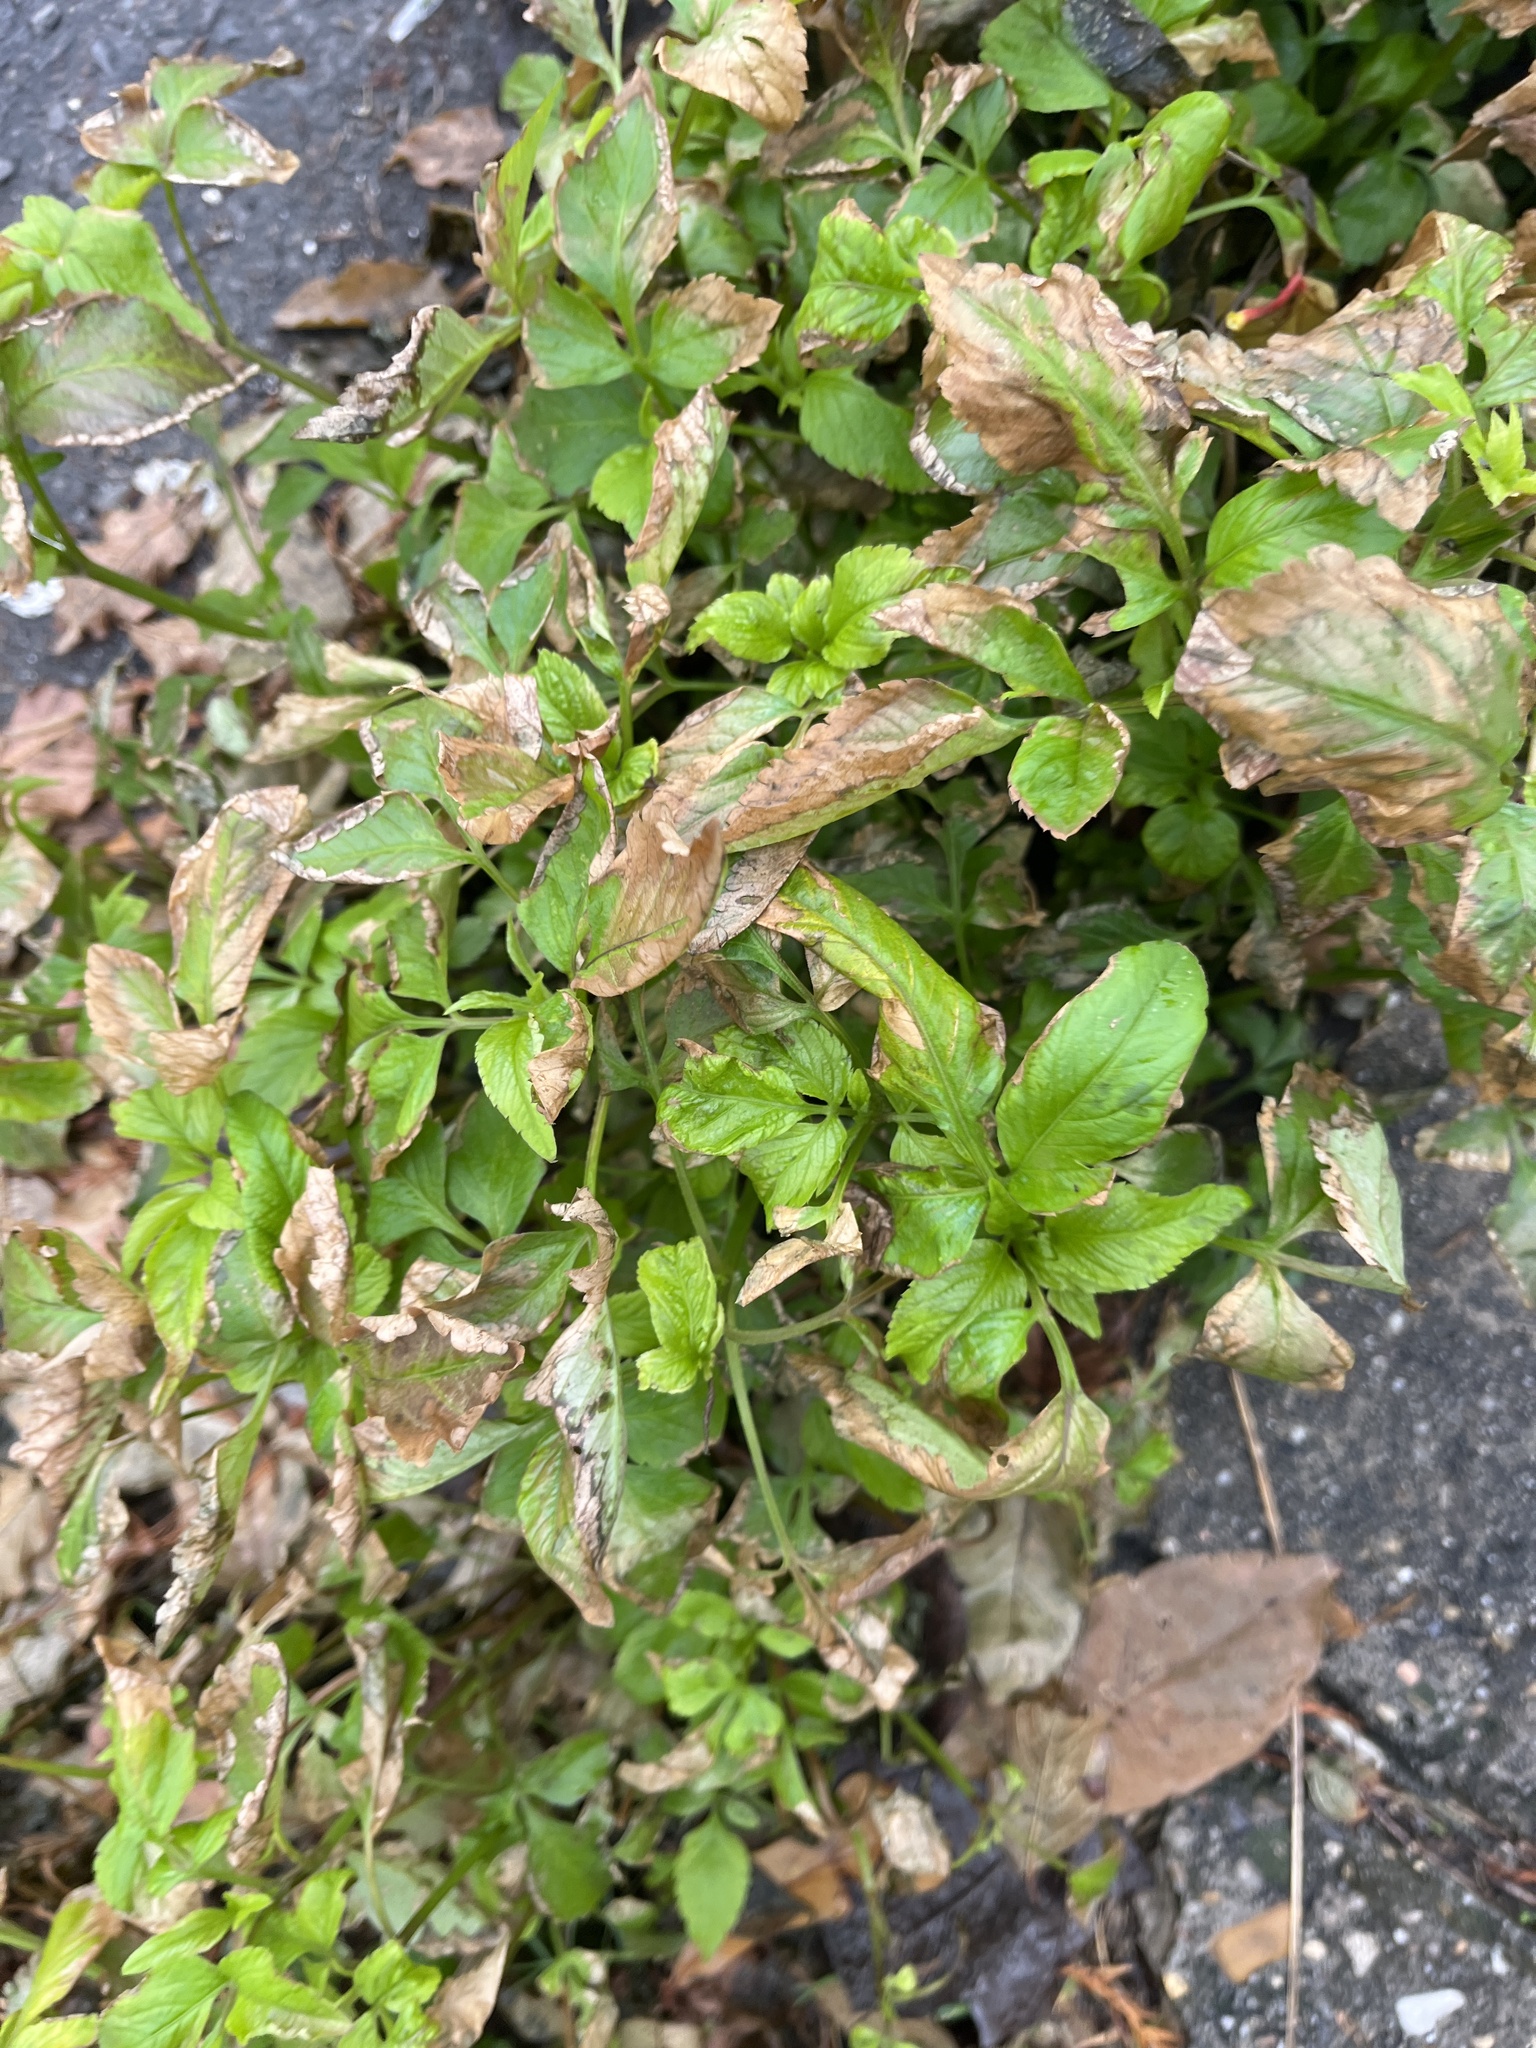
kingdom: Plantae
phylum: Tracheophyta
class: Magnoliopsida
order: Asterales
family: Asteraceae
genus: Bidens
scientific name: Bidens alba
